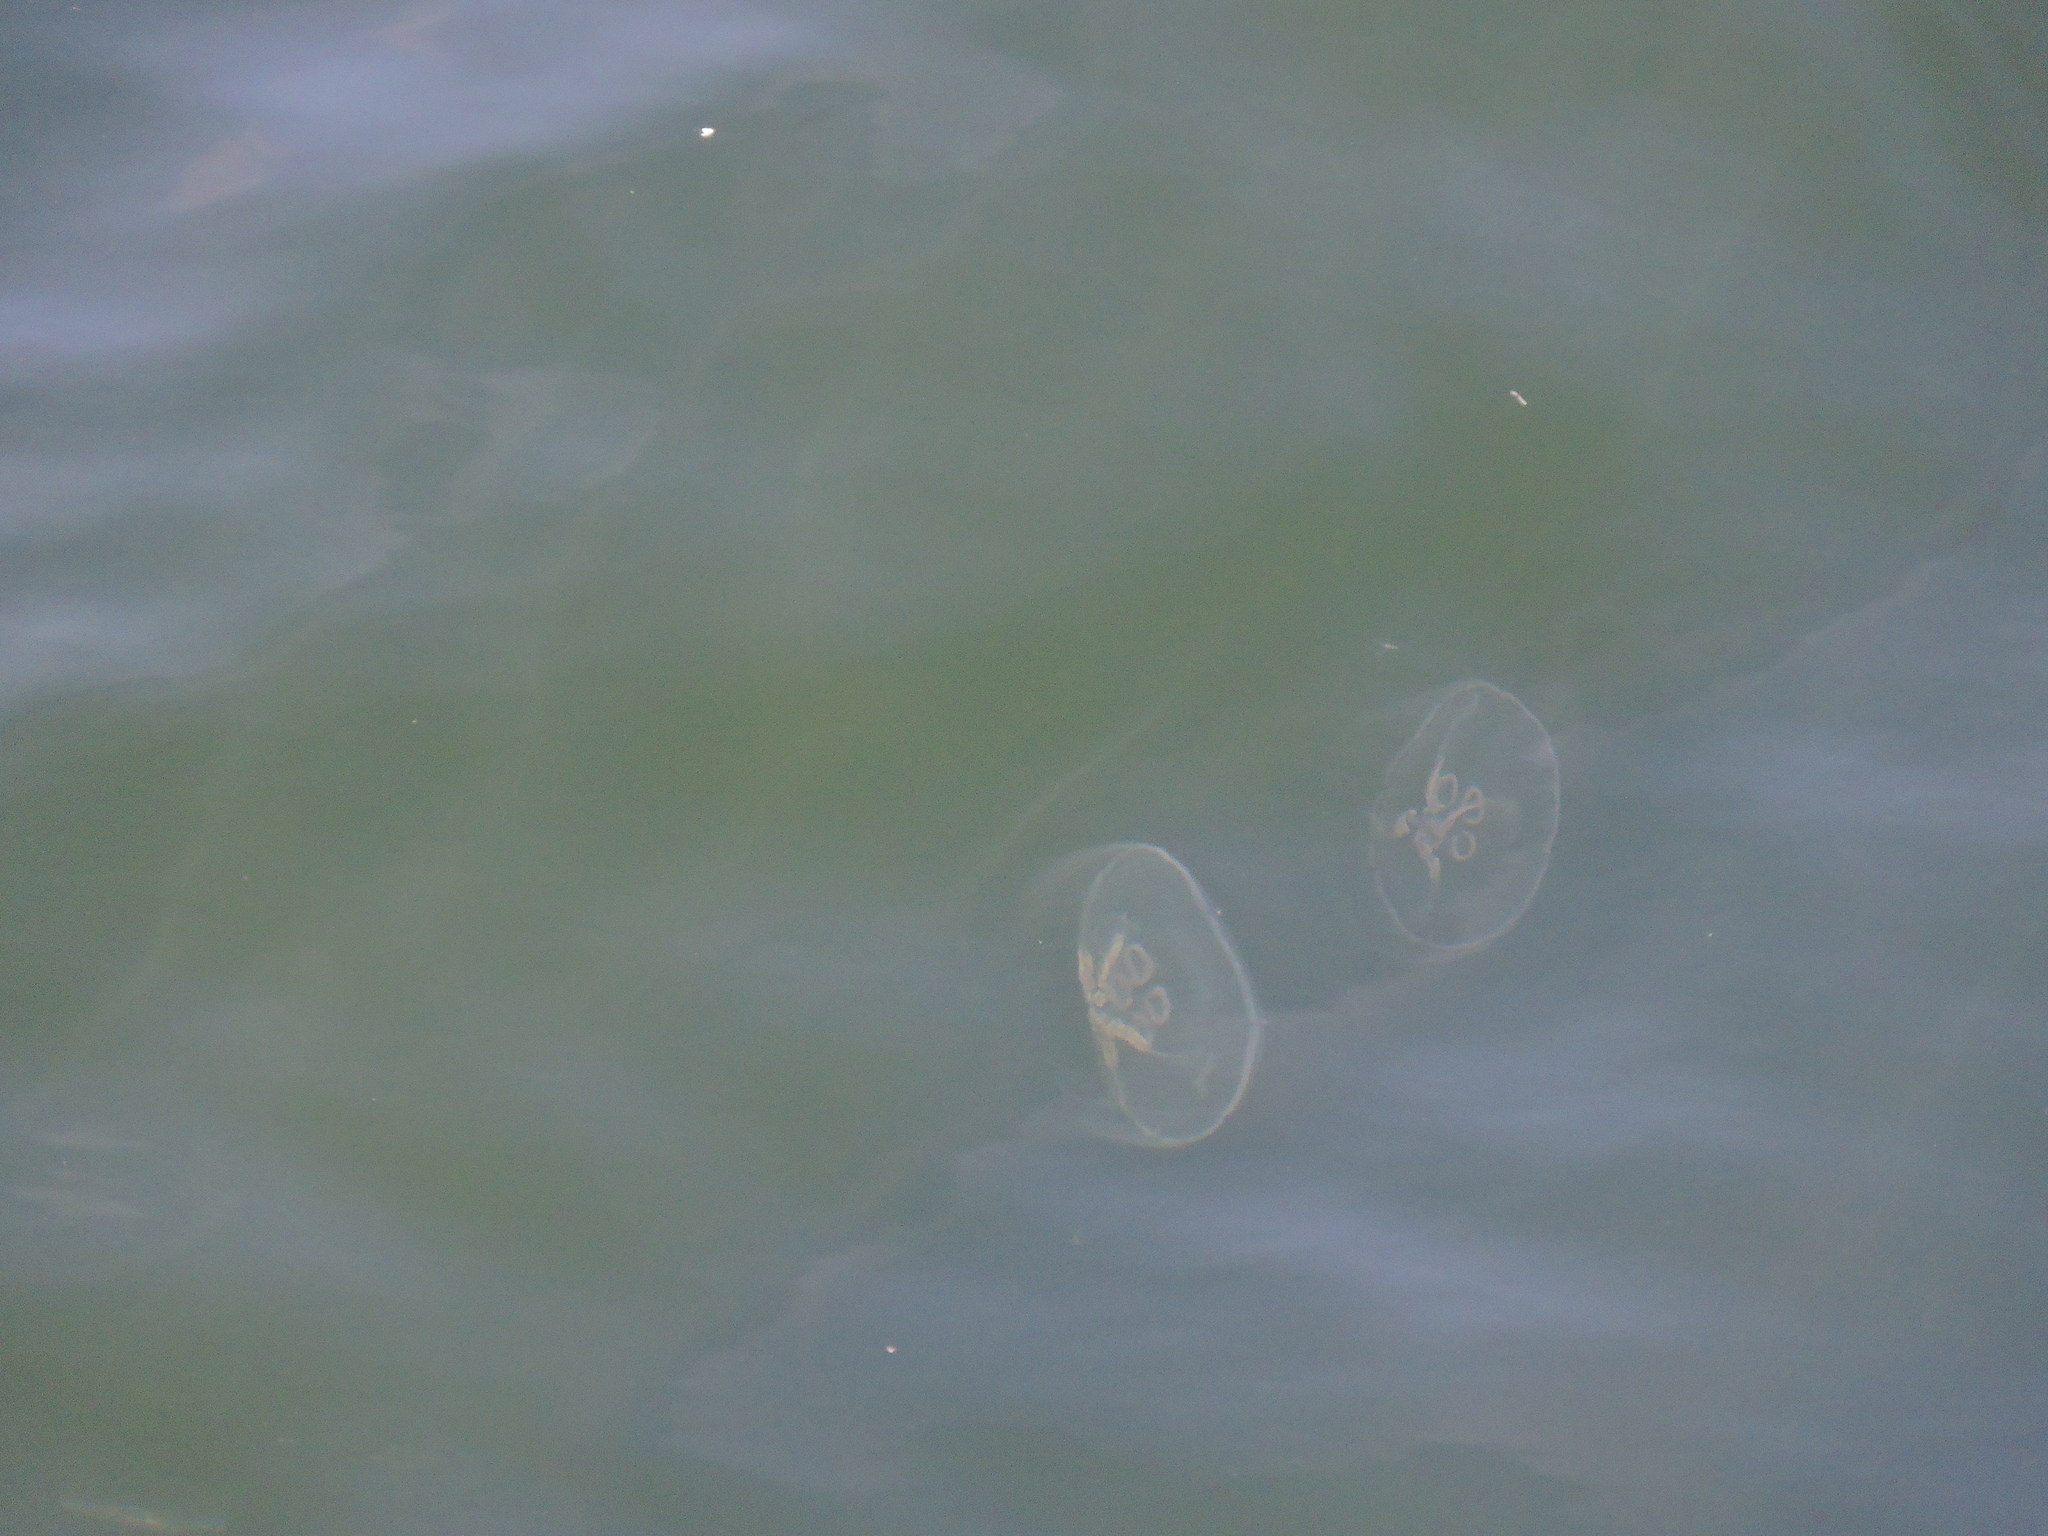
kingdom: Animalia
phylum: Cnidaria
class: Scyphozoa
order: Semaeostomeae
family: Ulmaridae
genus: Aurelia
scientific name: Aurelia aurita
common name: Moon jellyfish
